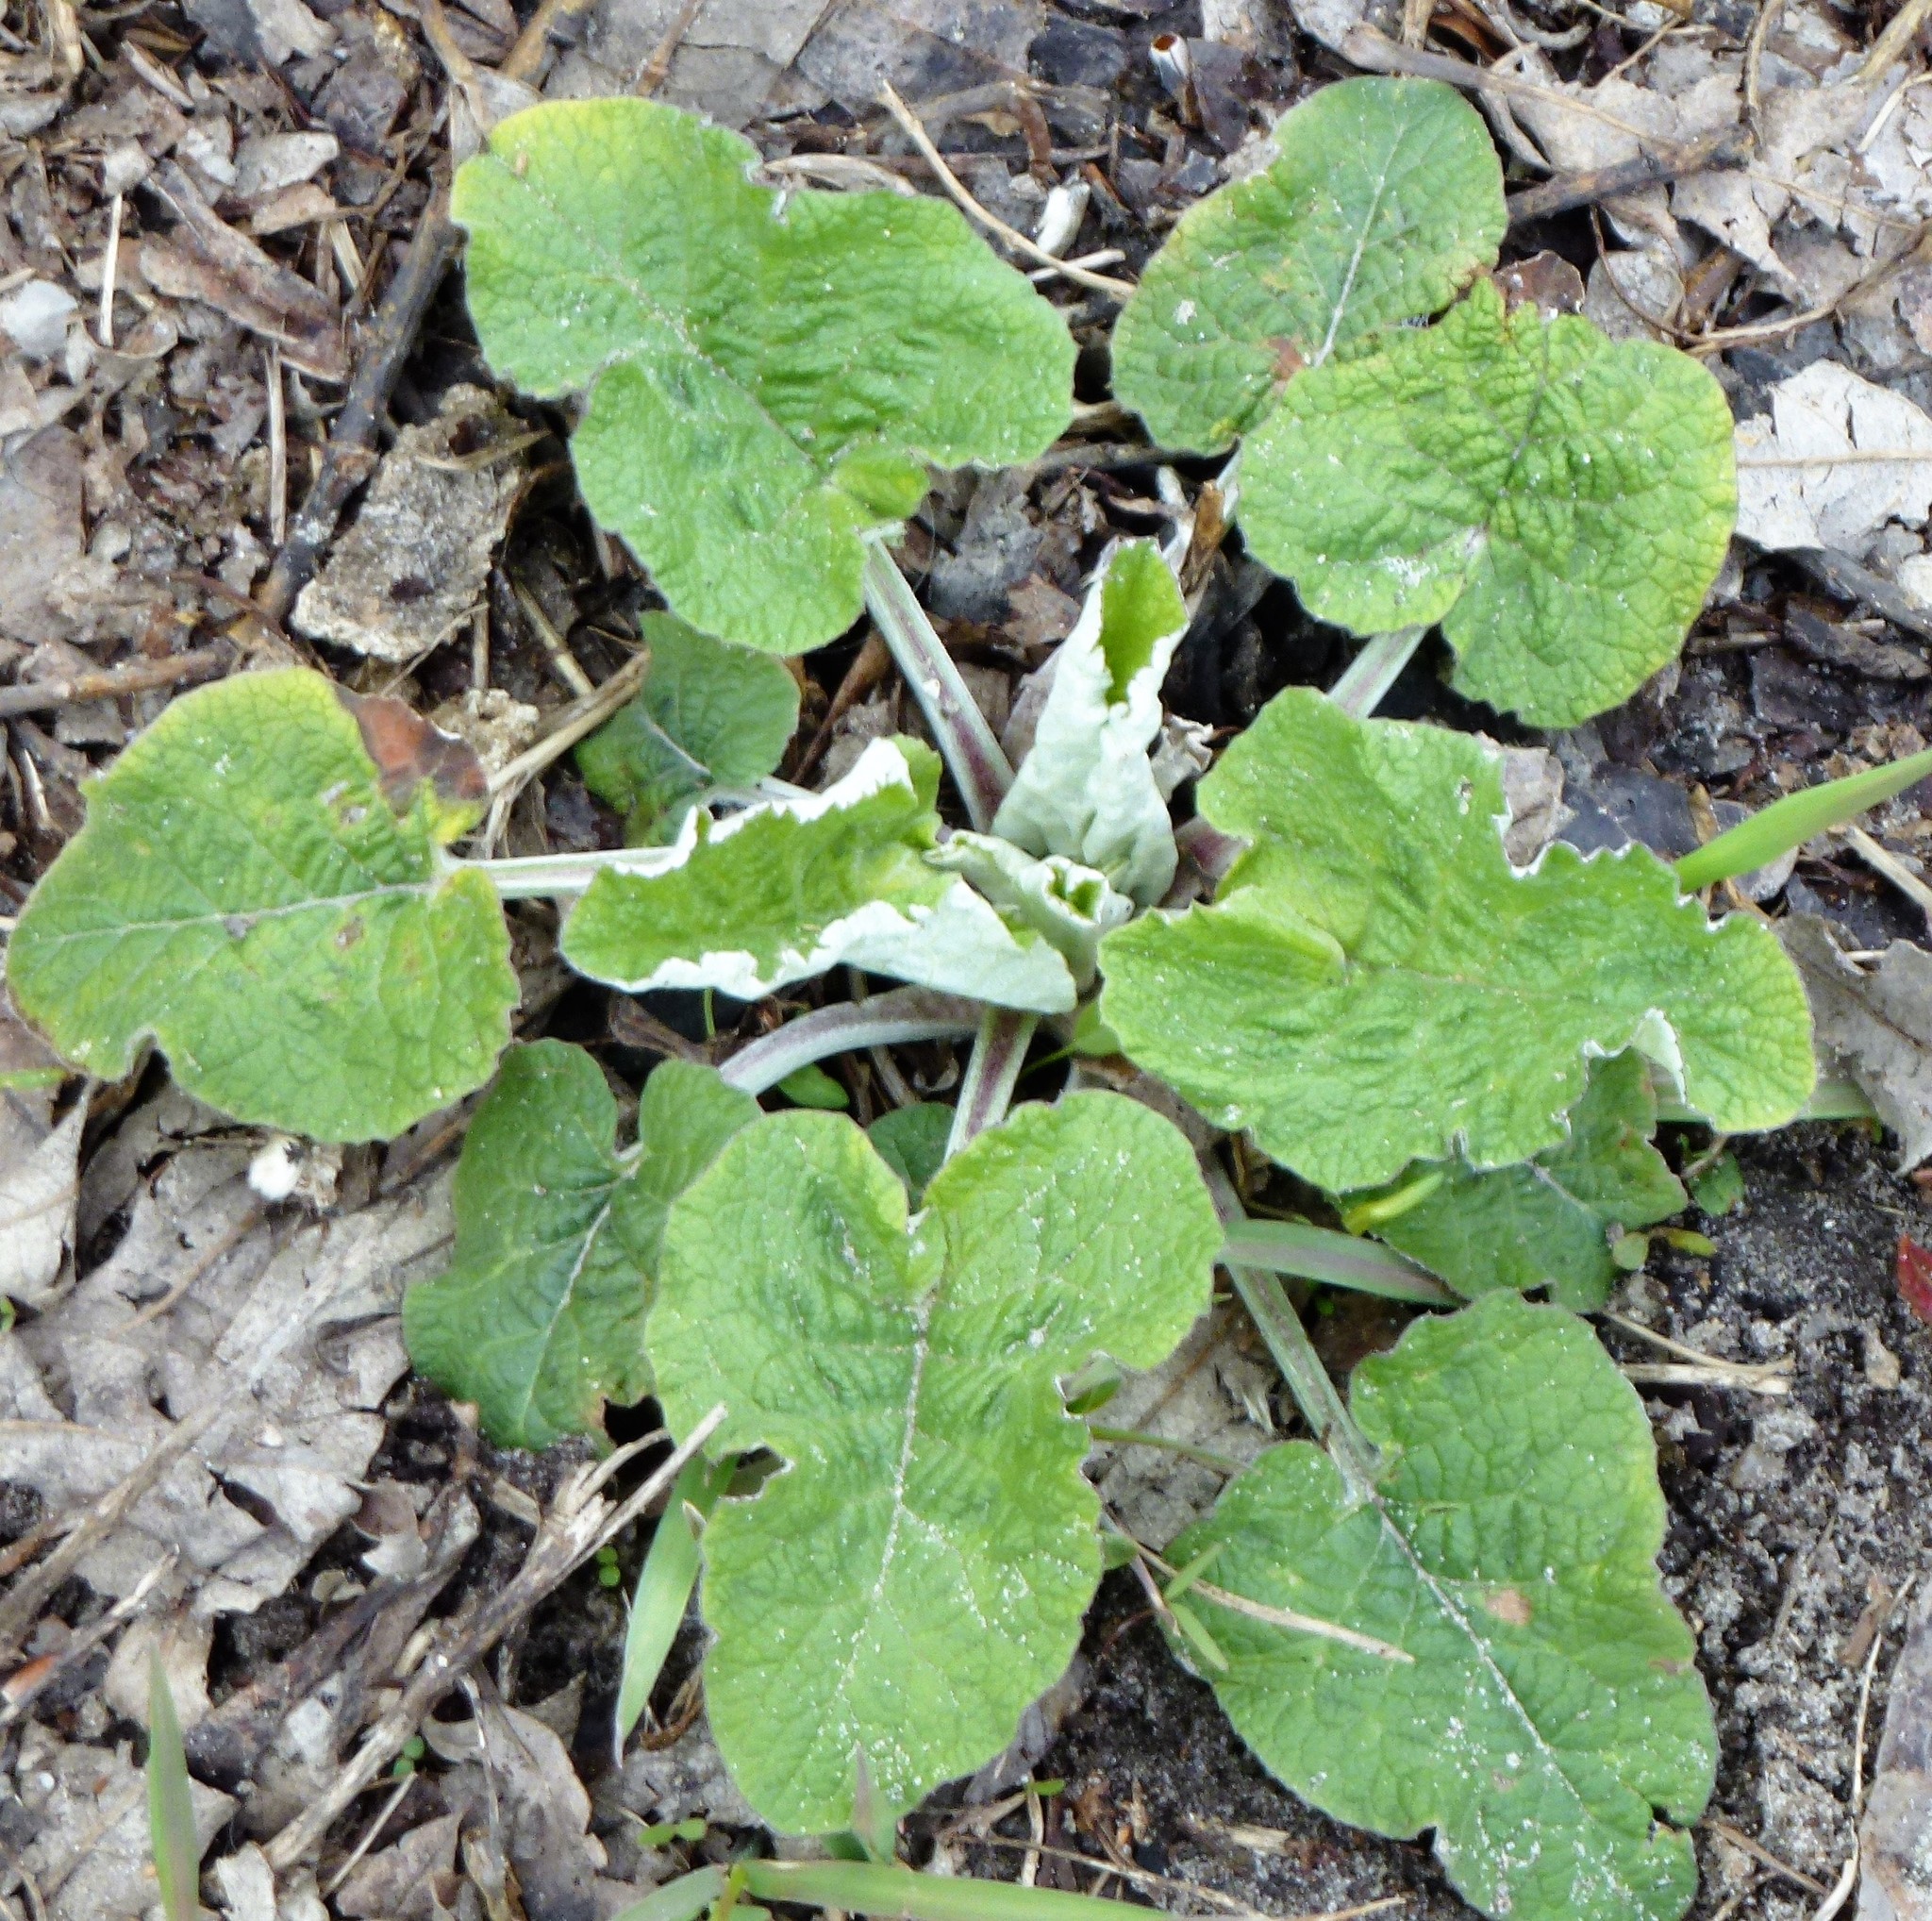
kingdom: Plantae
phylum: Tracheophyta
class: Magnoliopsida
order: Asterales
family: Asteraceae
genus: Arctium
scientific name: Arctium tomentosum
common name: Woolly burdock
